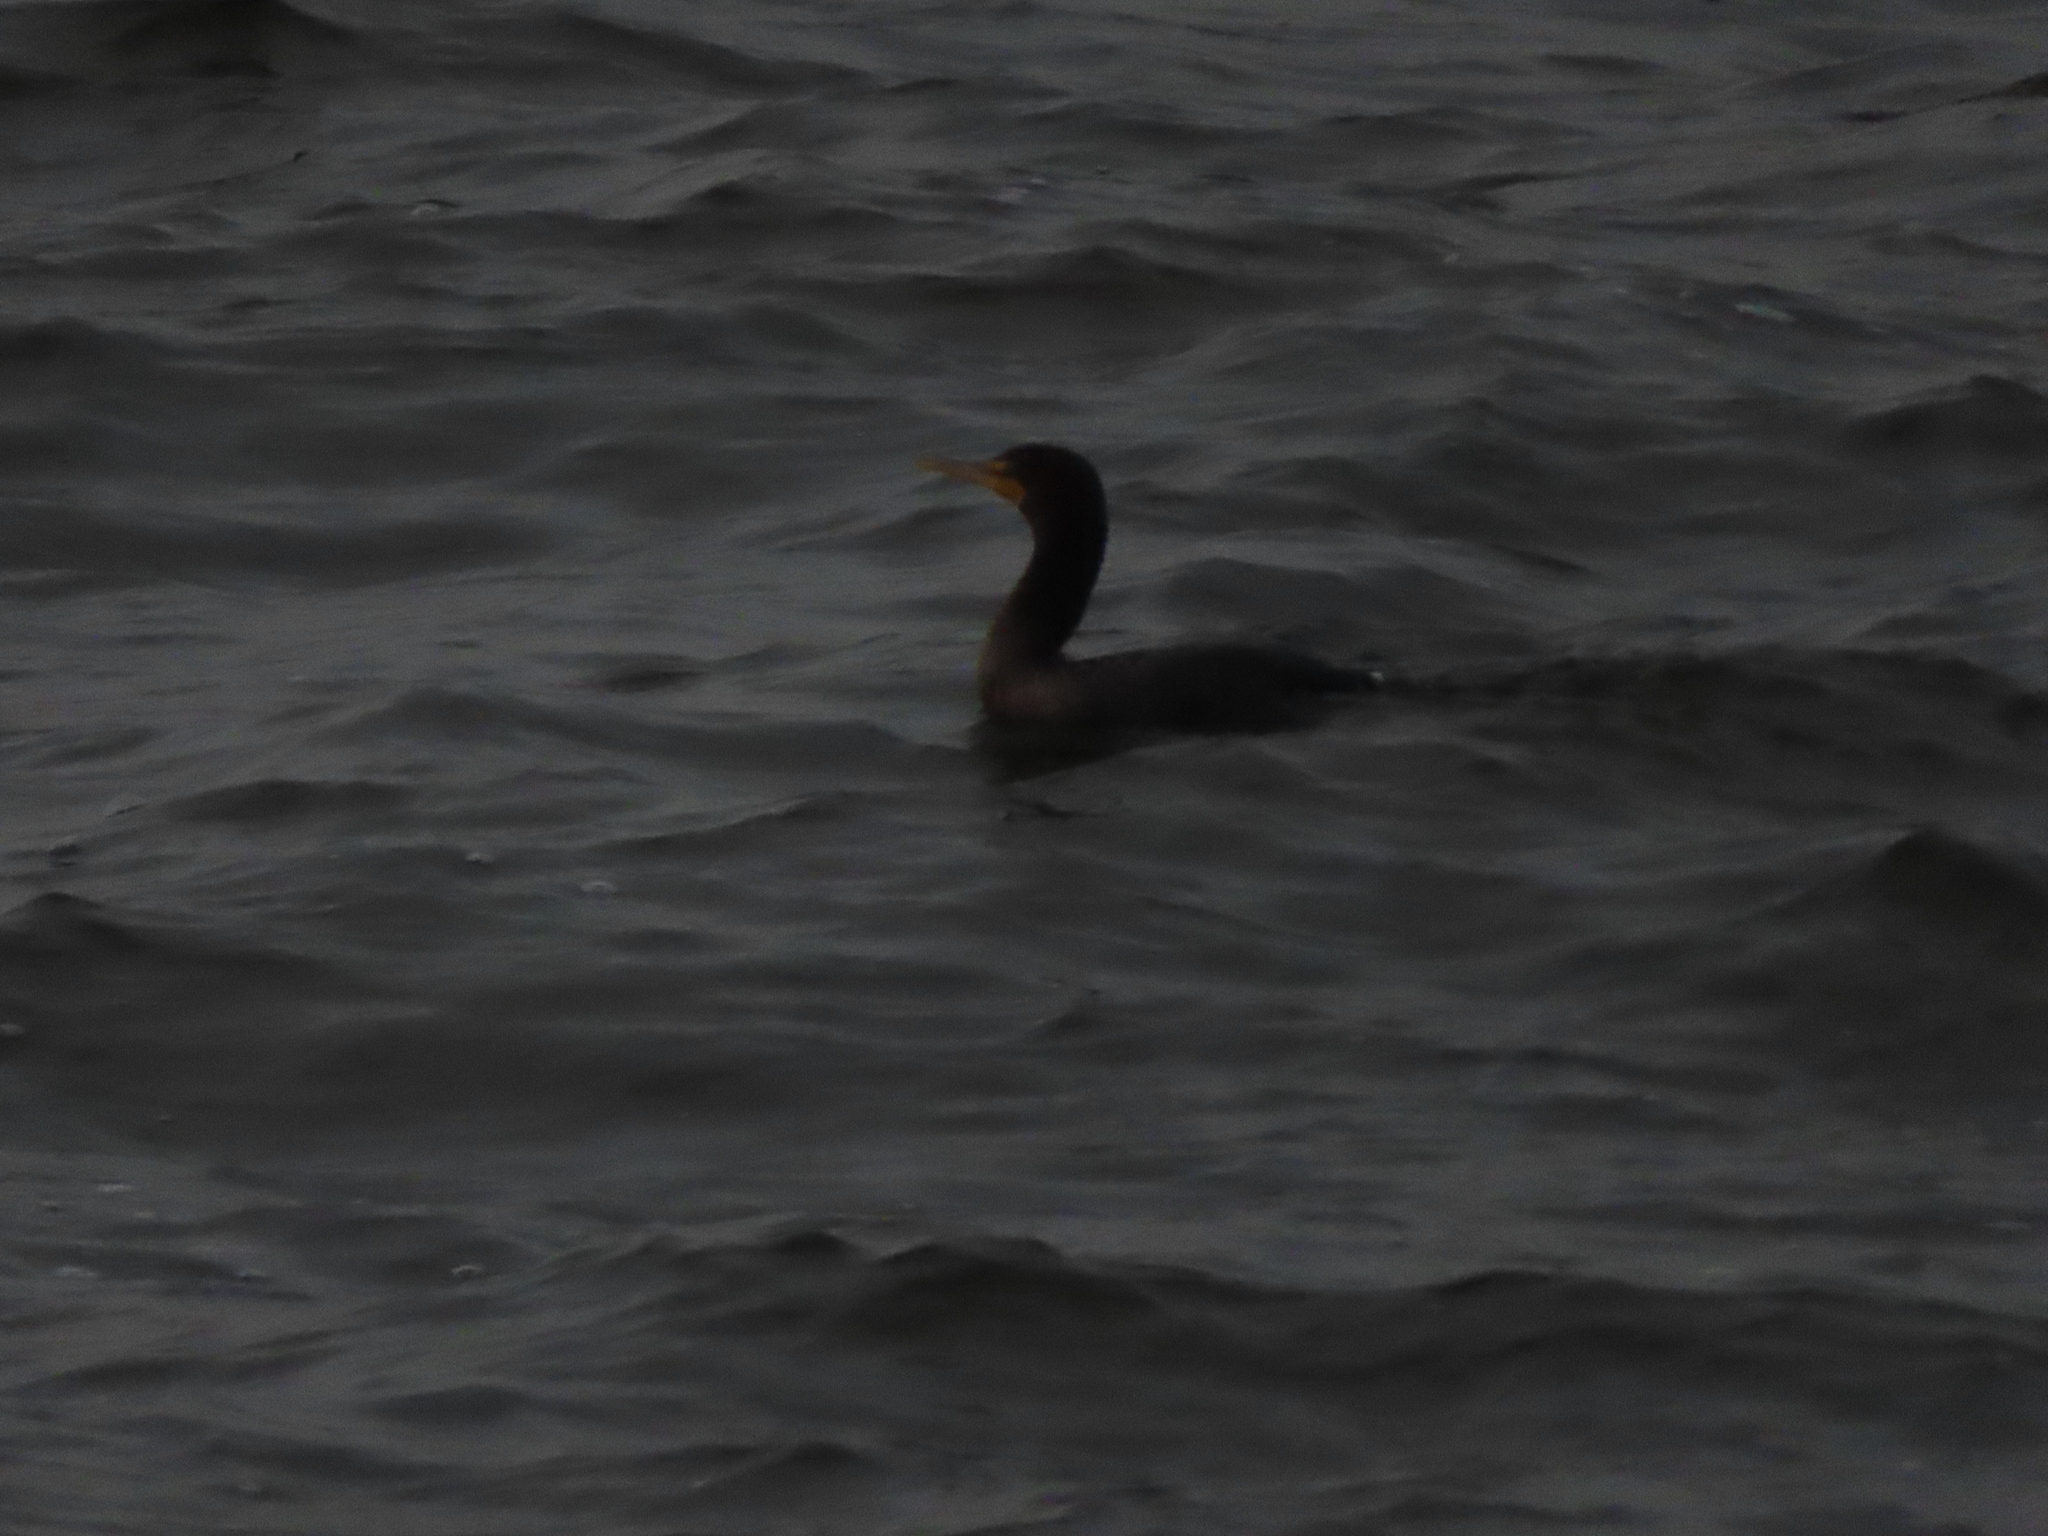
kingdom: Animalia
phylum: Chordata
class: Aves
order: Suliformes
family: Phalacrocoracidae
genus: Phalacrocorax
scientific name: Phalacrocorax auritus
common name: Double-crested cormorant
